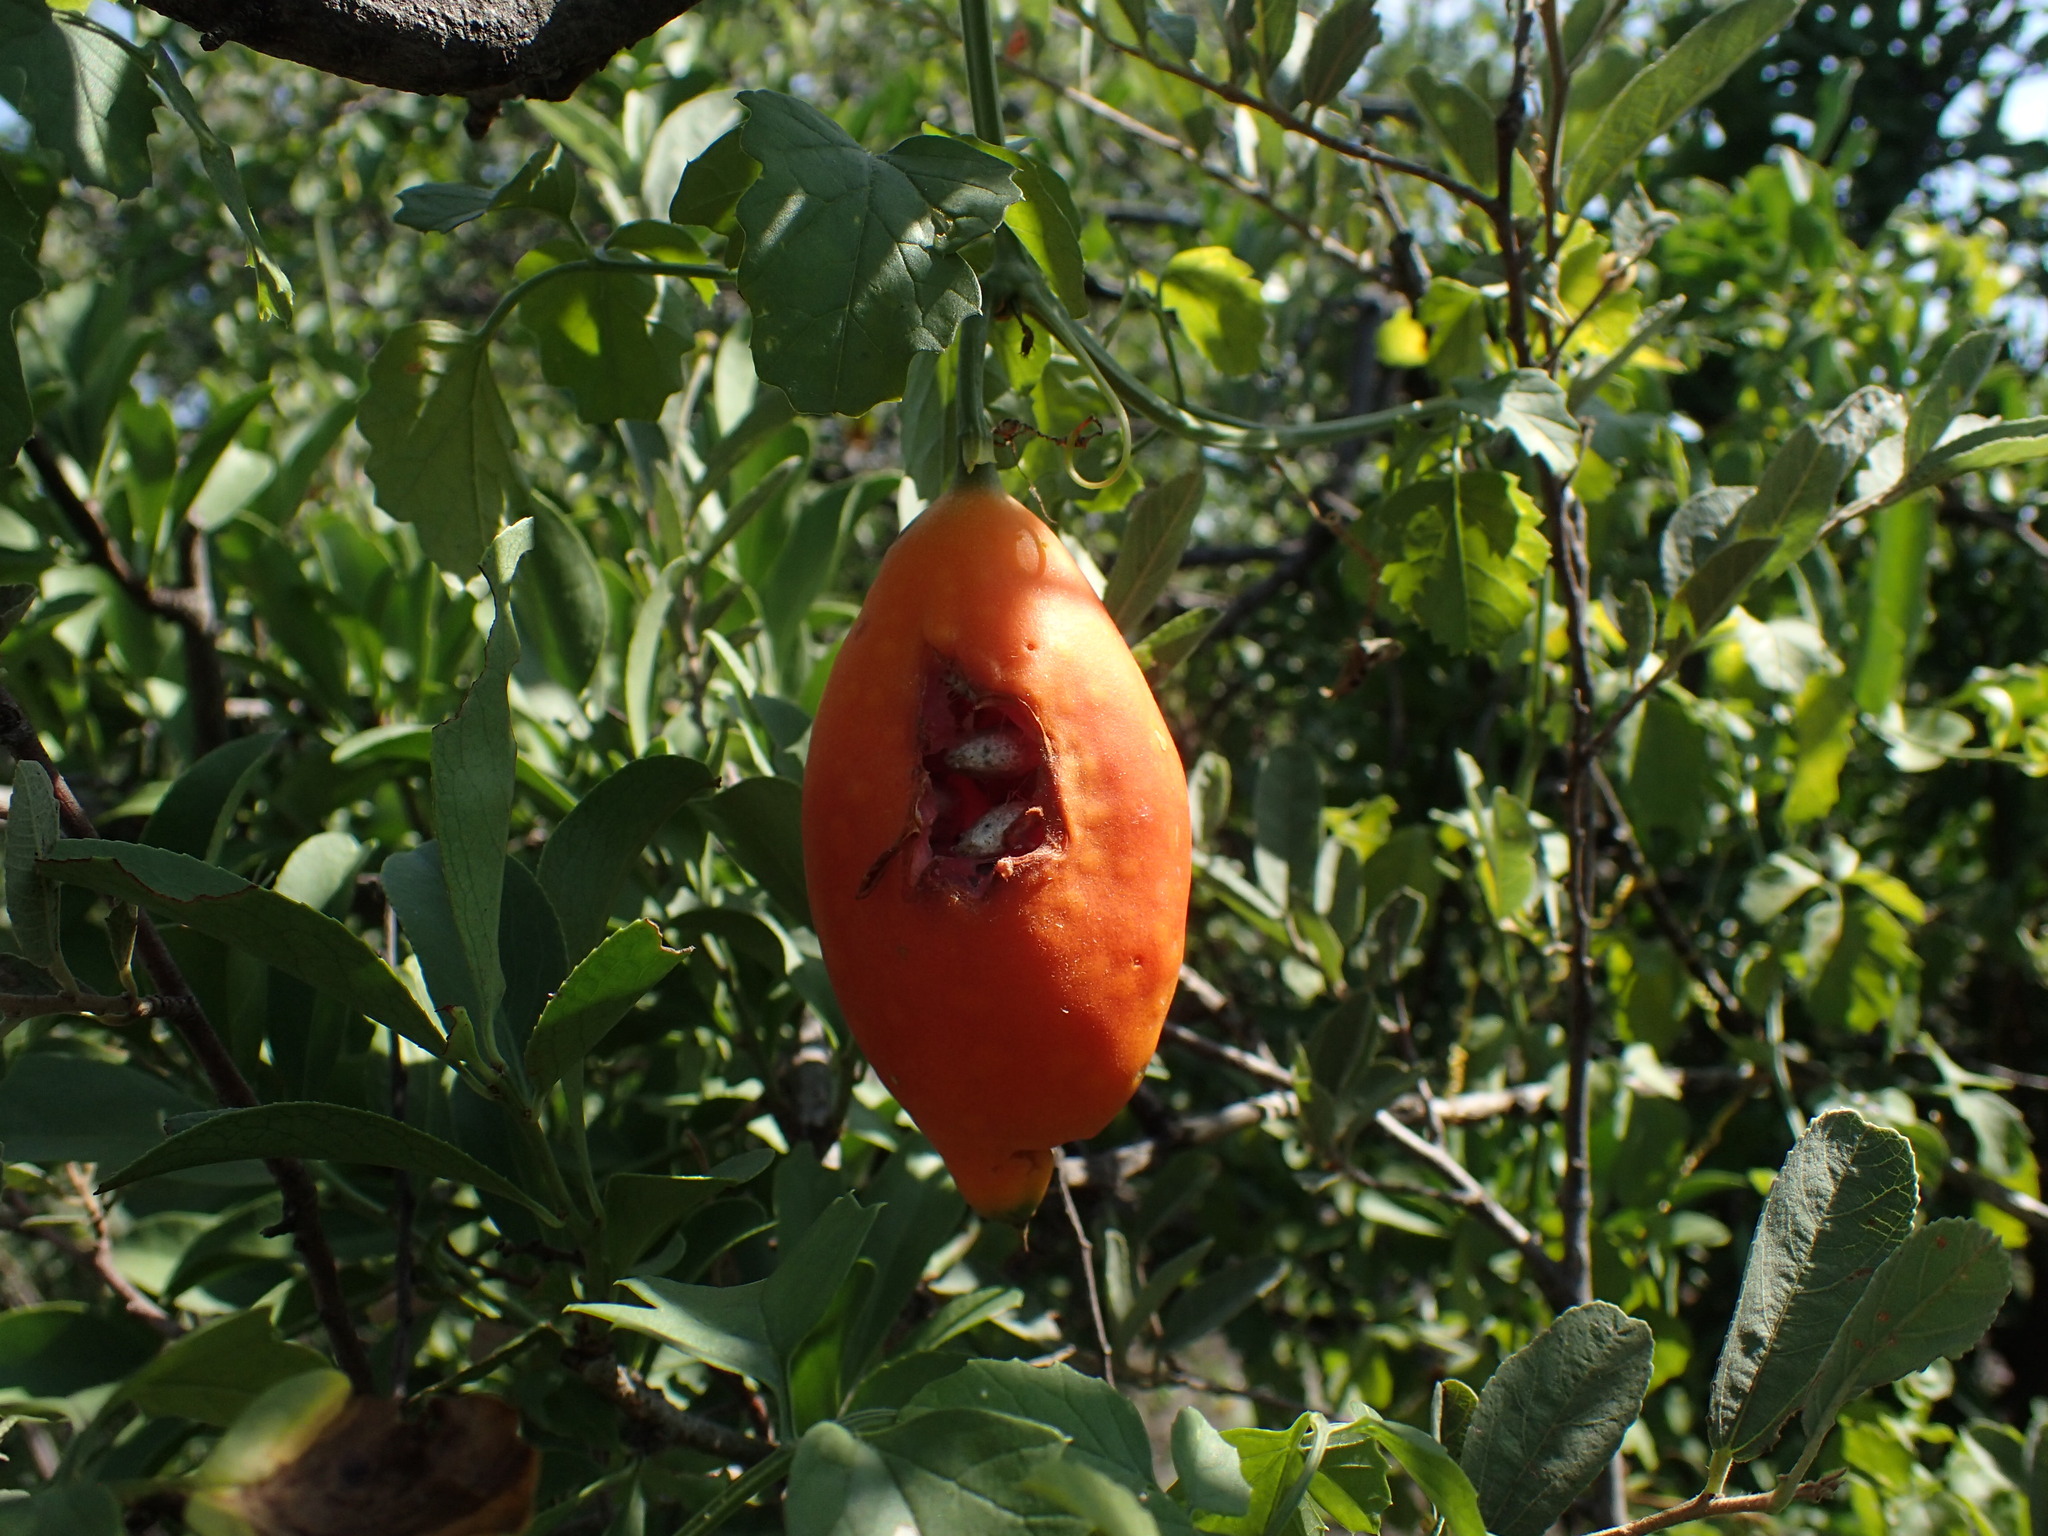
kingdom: Plantae
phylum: Tracheophyta
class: Magnoliopsida
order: Cucurbitales
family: Cucurbitaceae
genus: Momordica
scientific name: Momordica cardiospermoides
